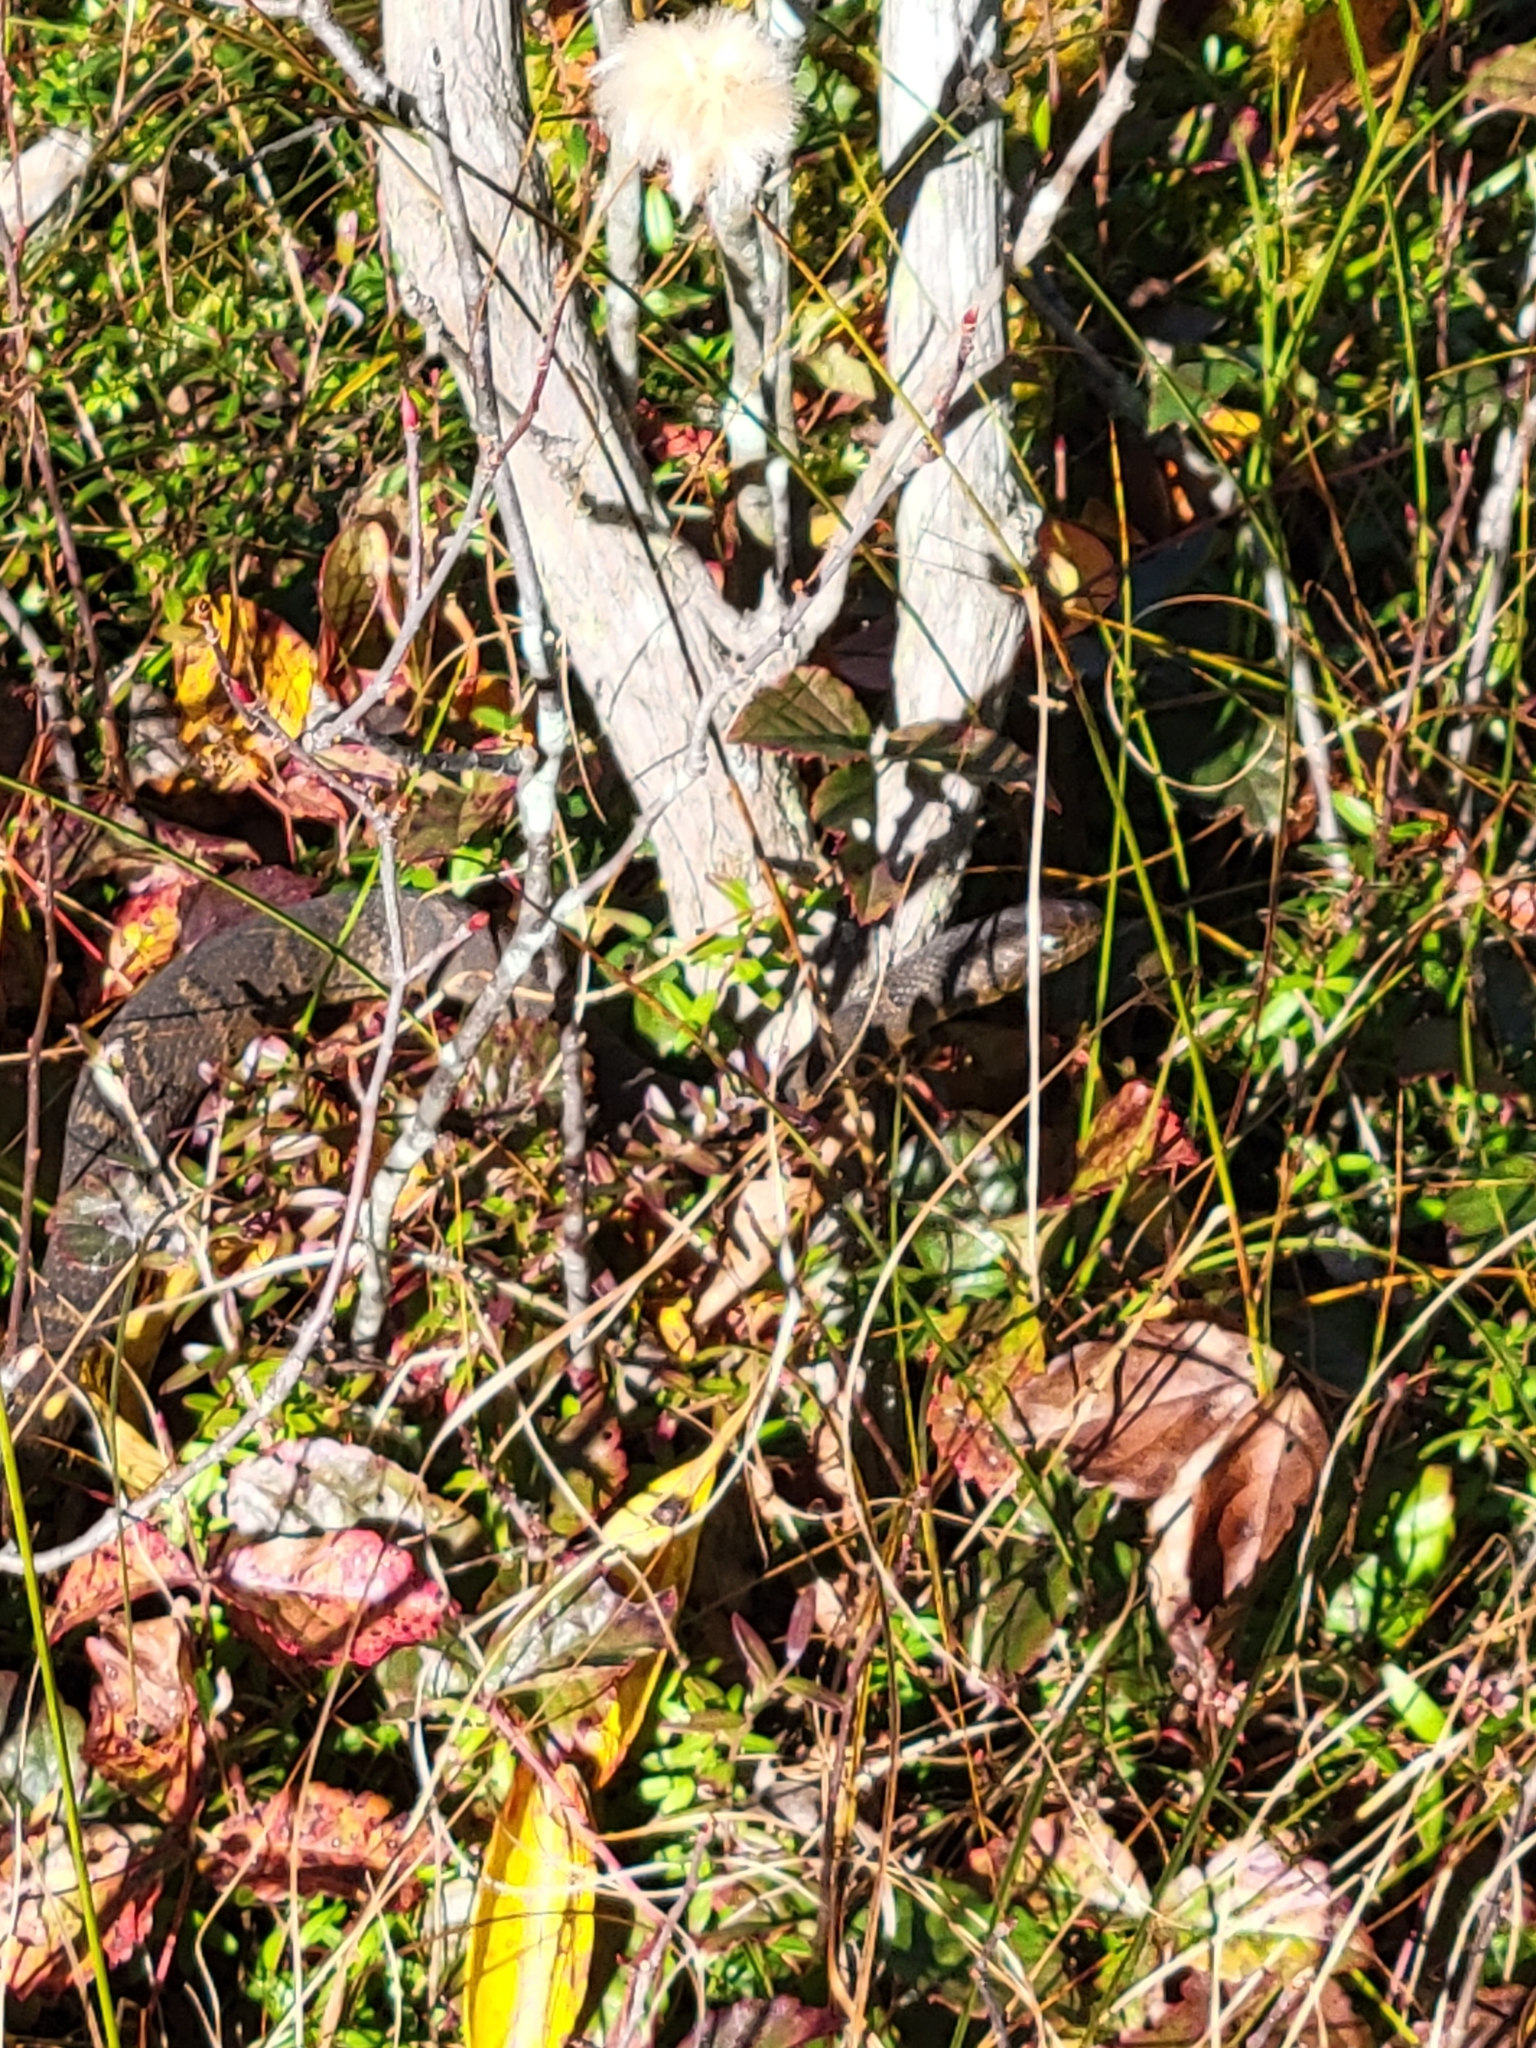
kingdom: Animalia
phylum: Chordata
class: Squamata
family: Colubridae
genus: Nerodia
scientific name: Nerodia sipedon
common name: Northern water snake
